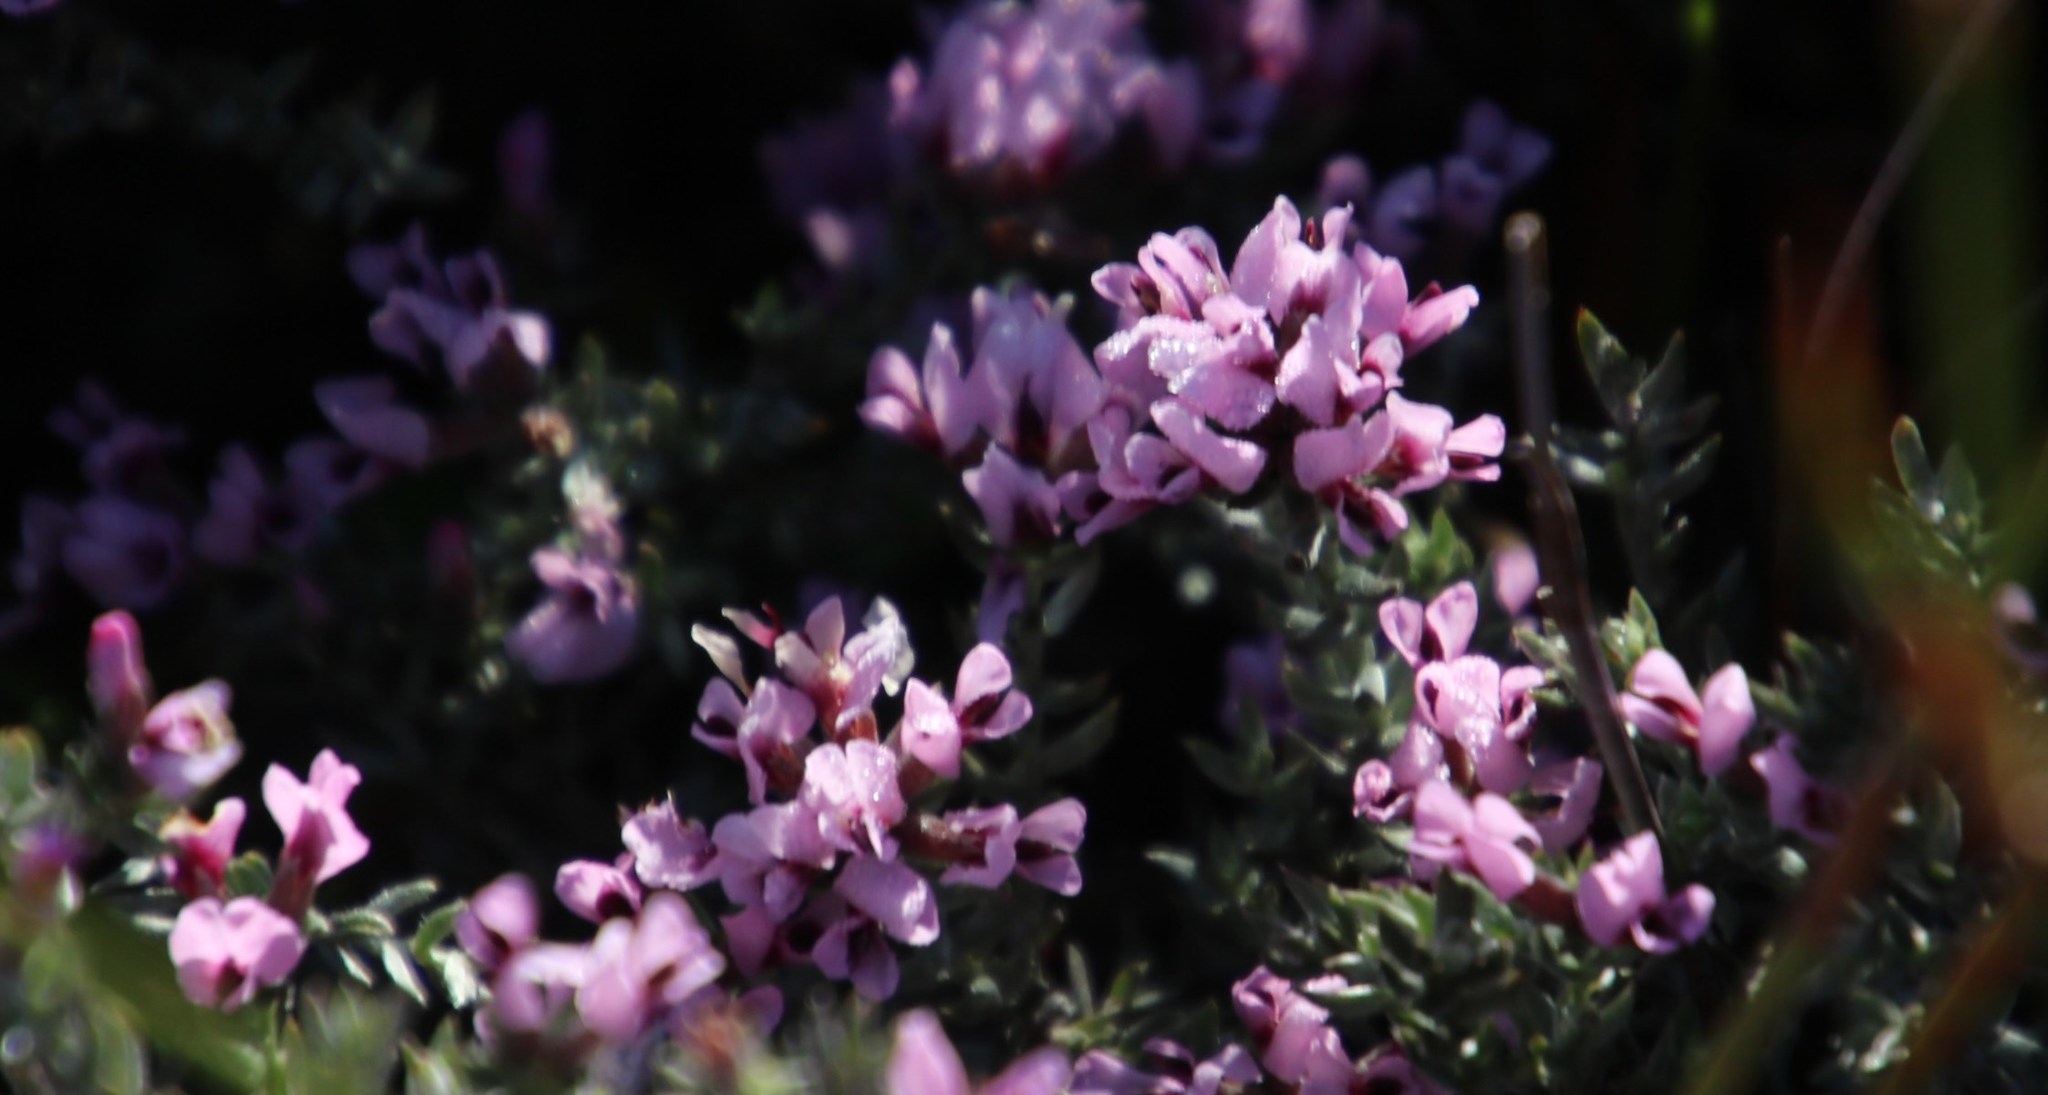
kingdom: Plantae
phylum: Tracheophyta
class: Magnoliopsida
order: Fabales
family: Fabaceae
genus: Amphithalea
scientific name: Amphithalea ericifolia
